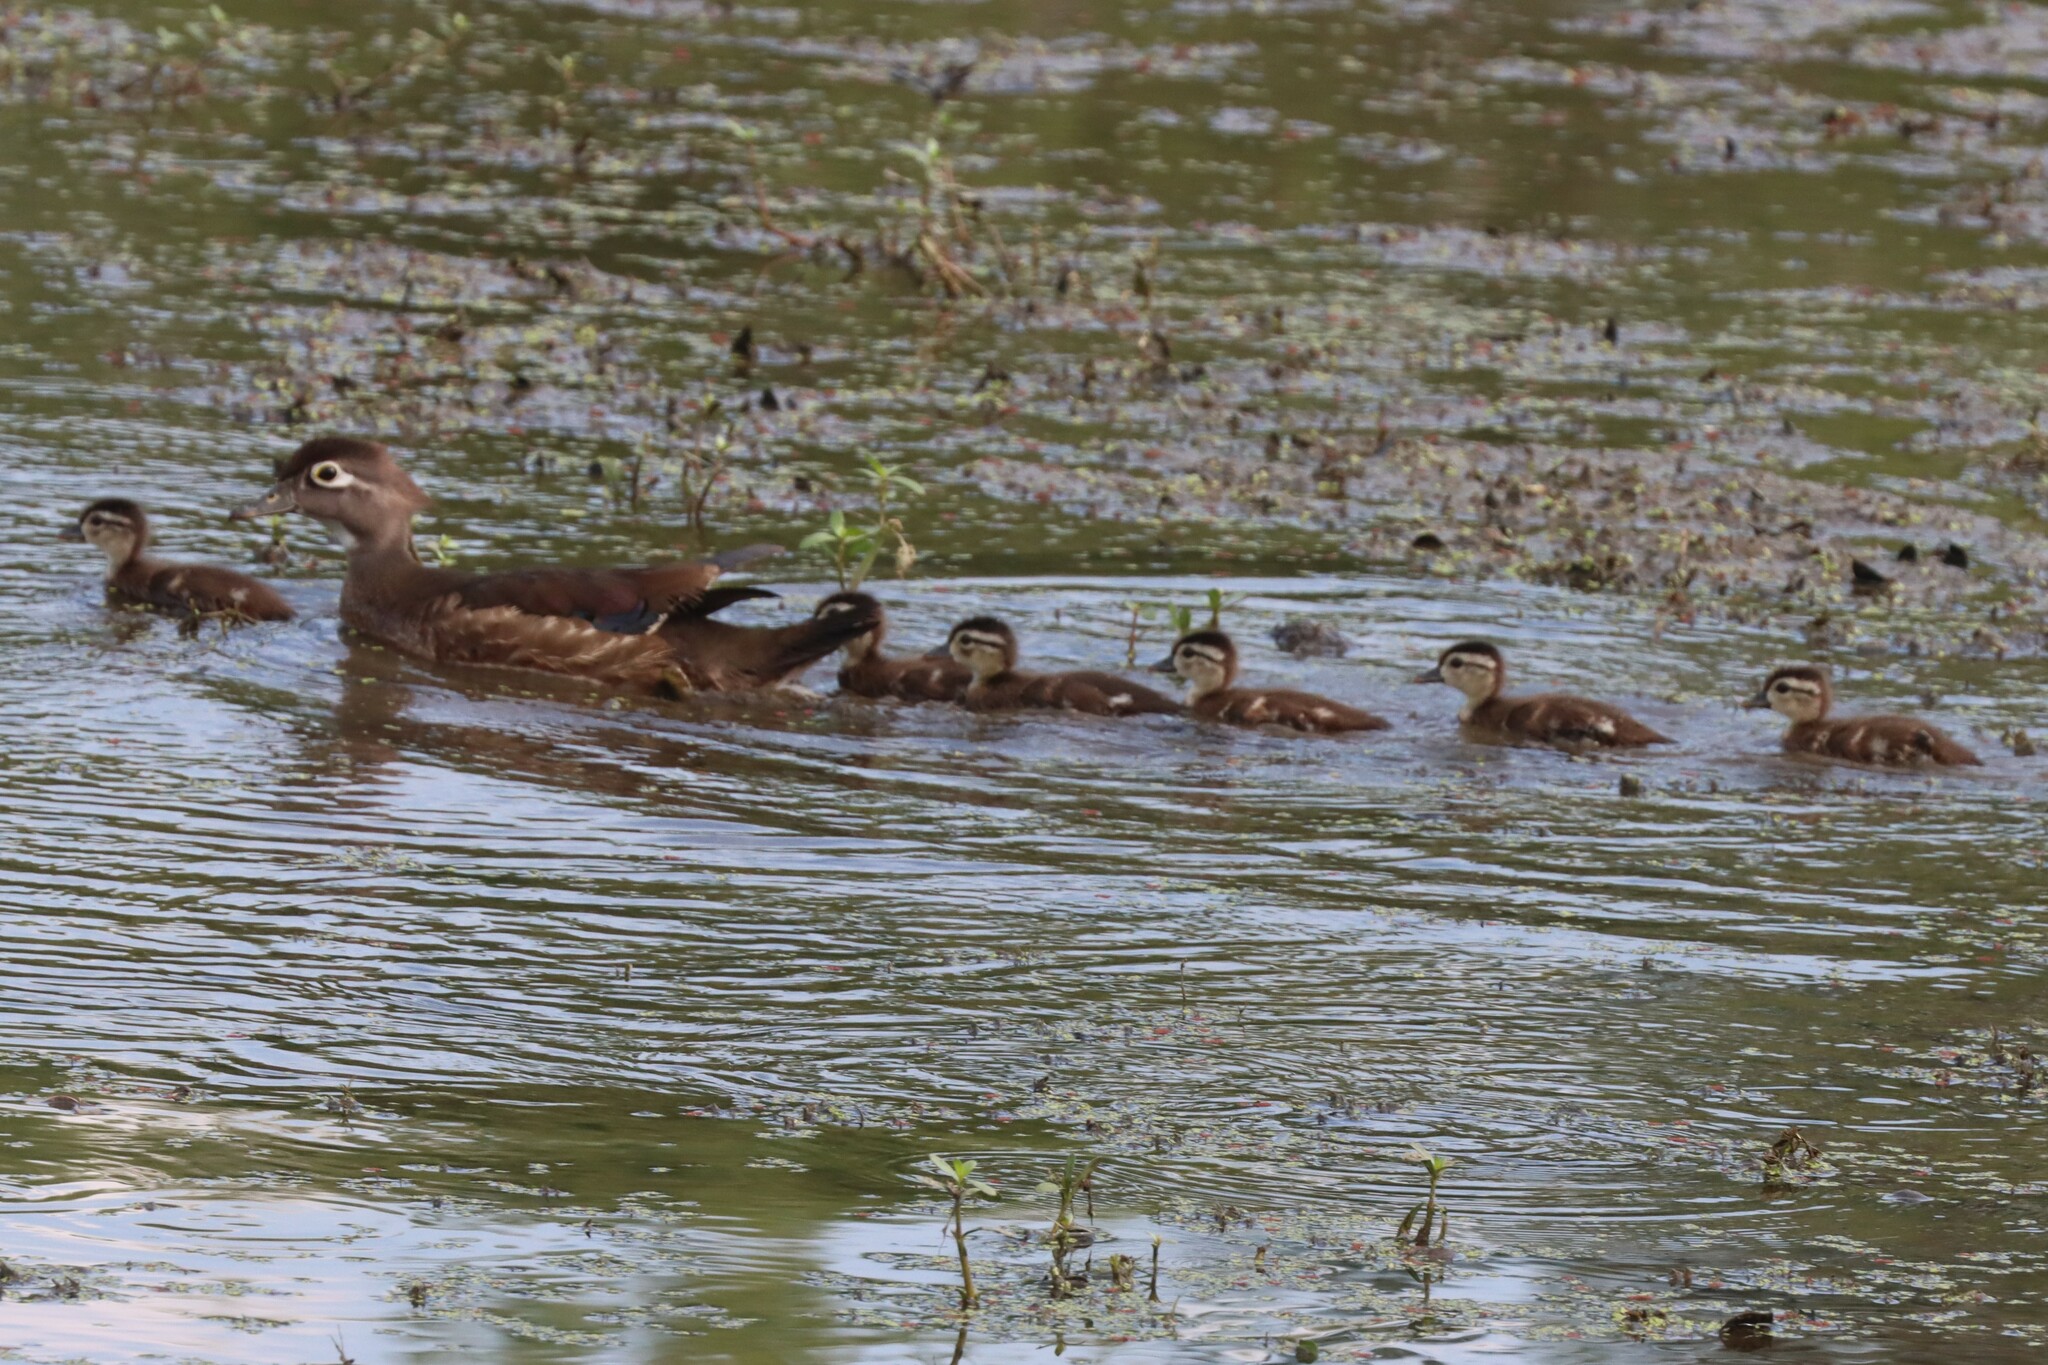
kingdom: Animalia
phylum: Chordata
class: Aves
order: Anseriformes
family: Anatidae
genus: Aix
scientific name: Aix sponsa
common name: Wood duck
